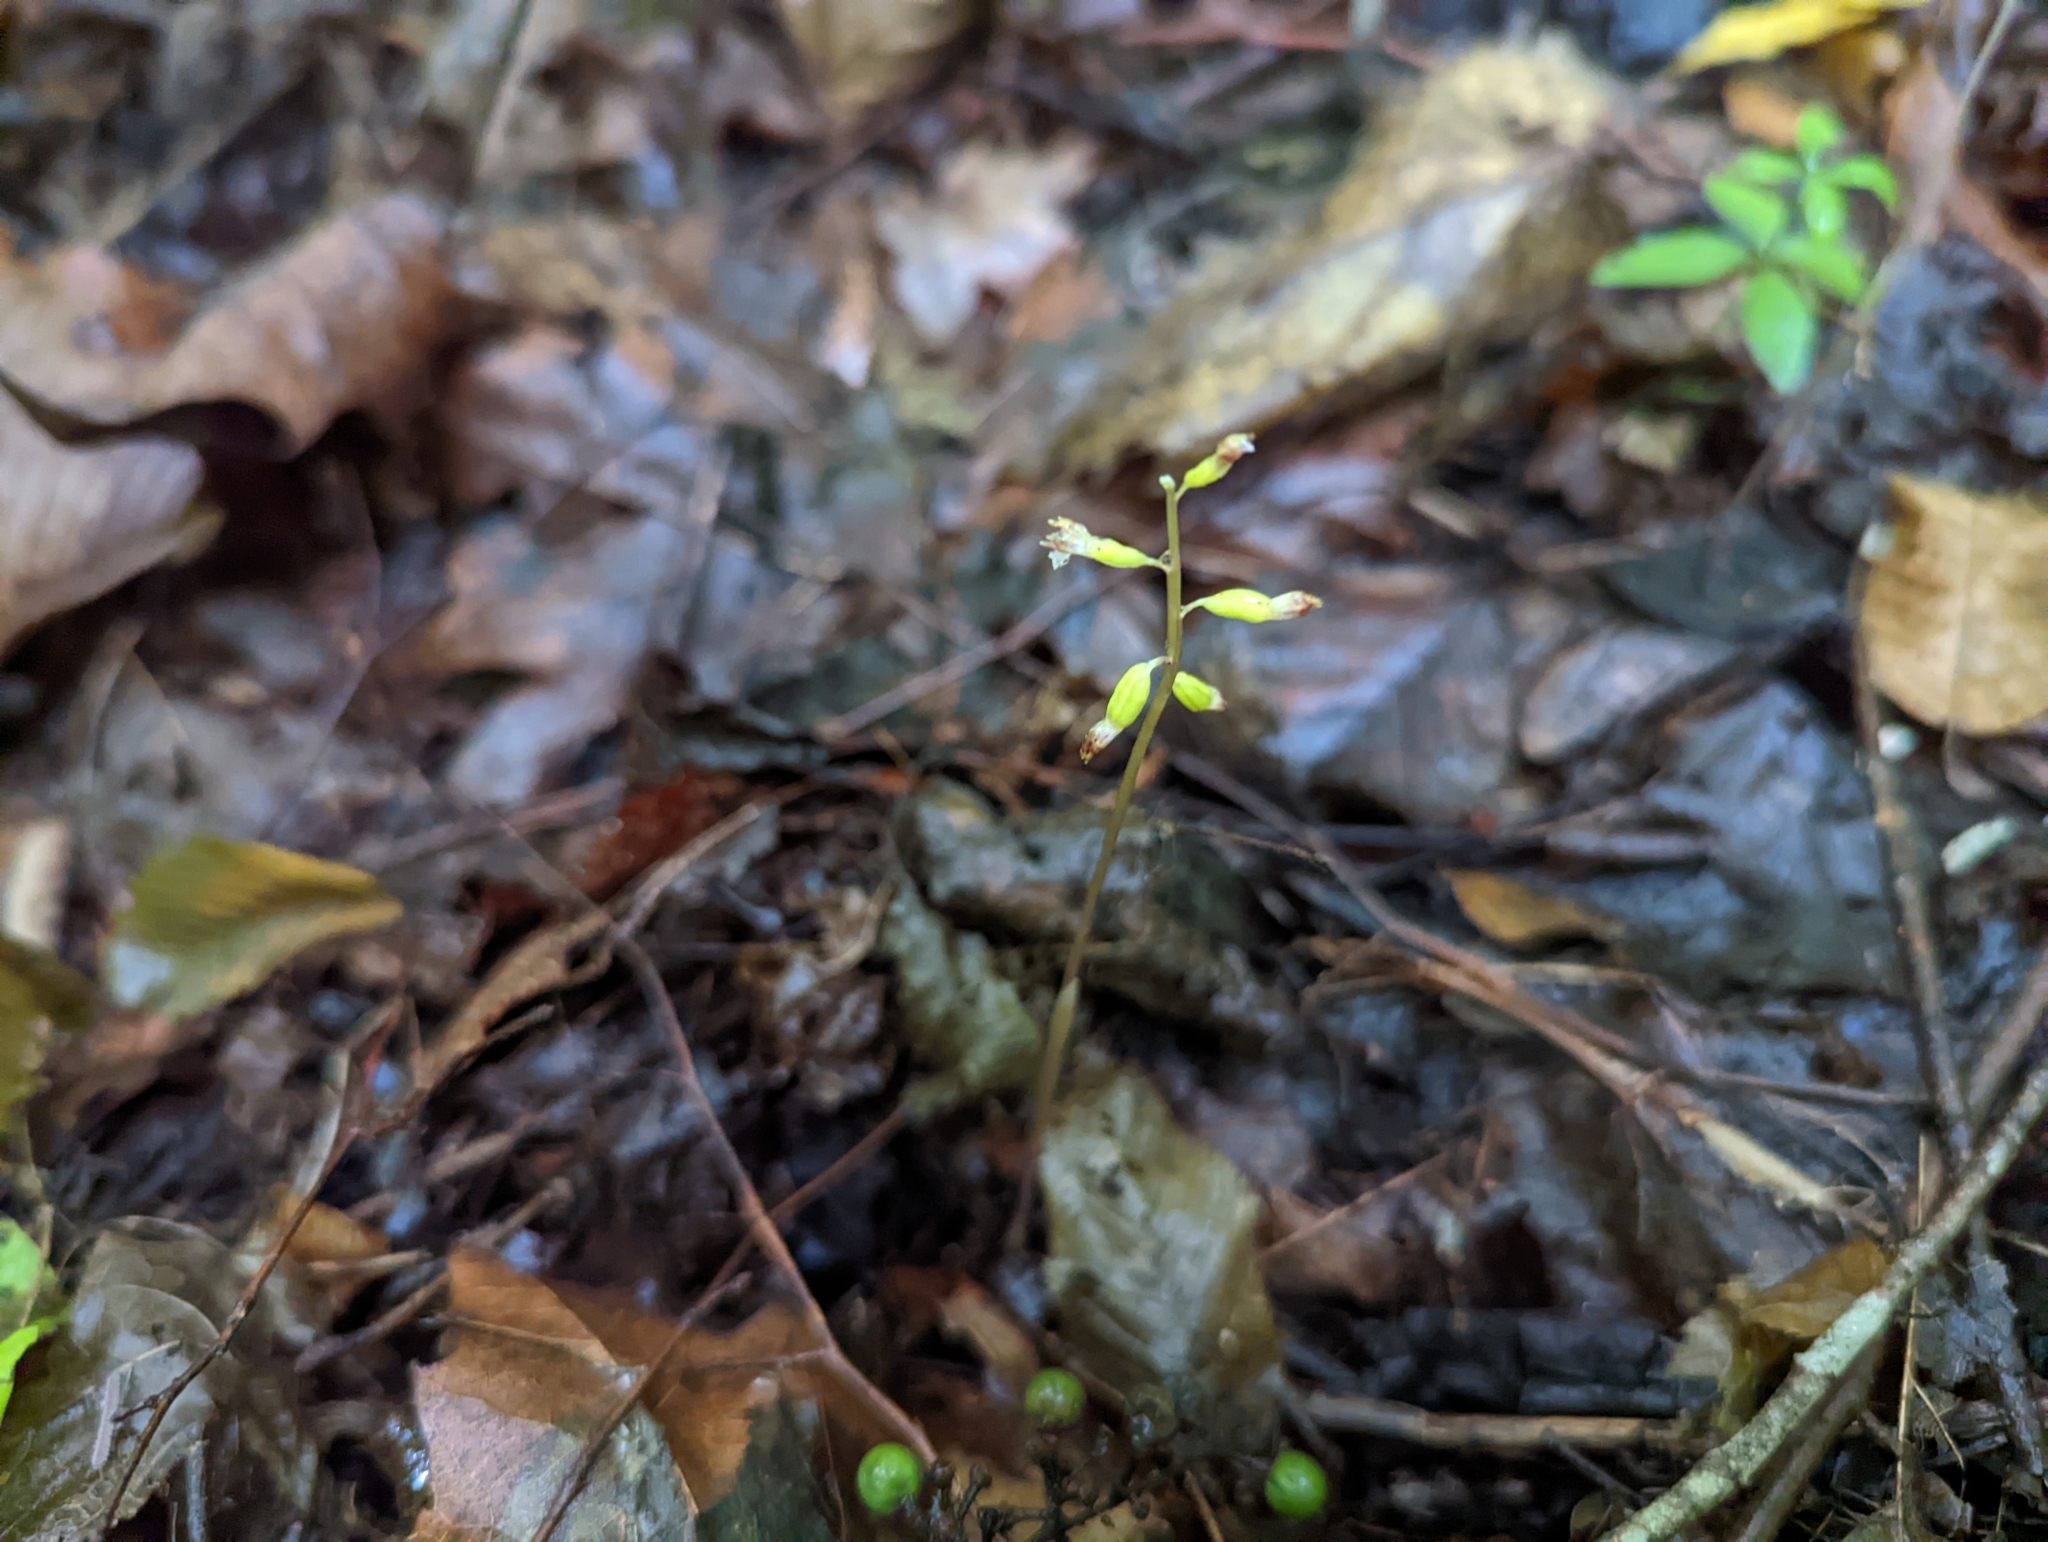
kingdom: Plantae
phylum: Tracheophyta
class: Liliopsida
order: Asparagales
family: Orchidaceae
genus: Corallorhiza
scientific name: Corallorhiza odontorhiza
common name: Autumn coralroot
